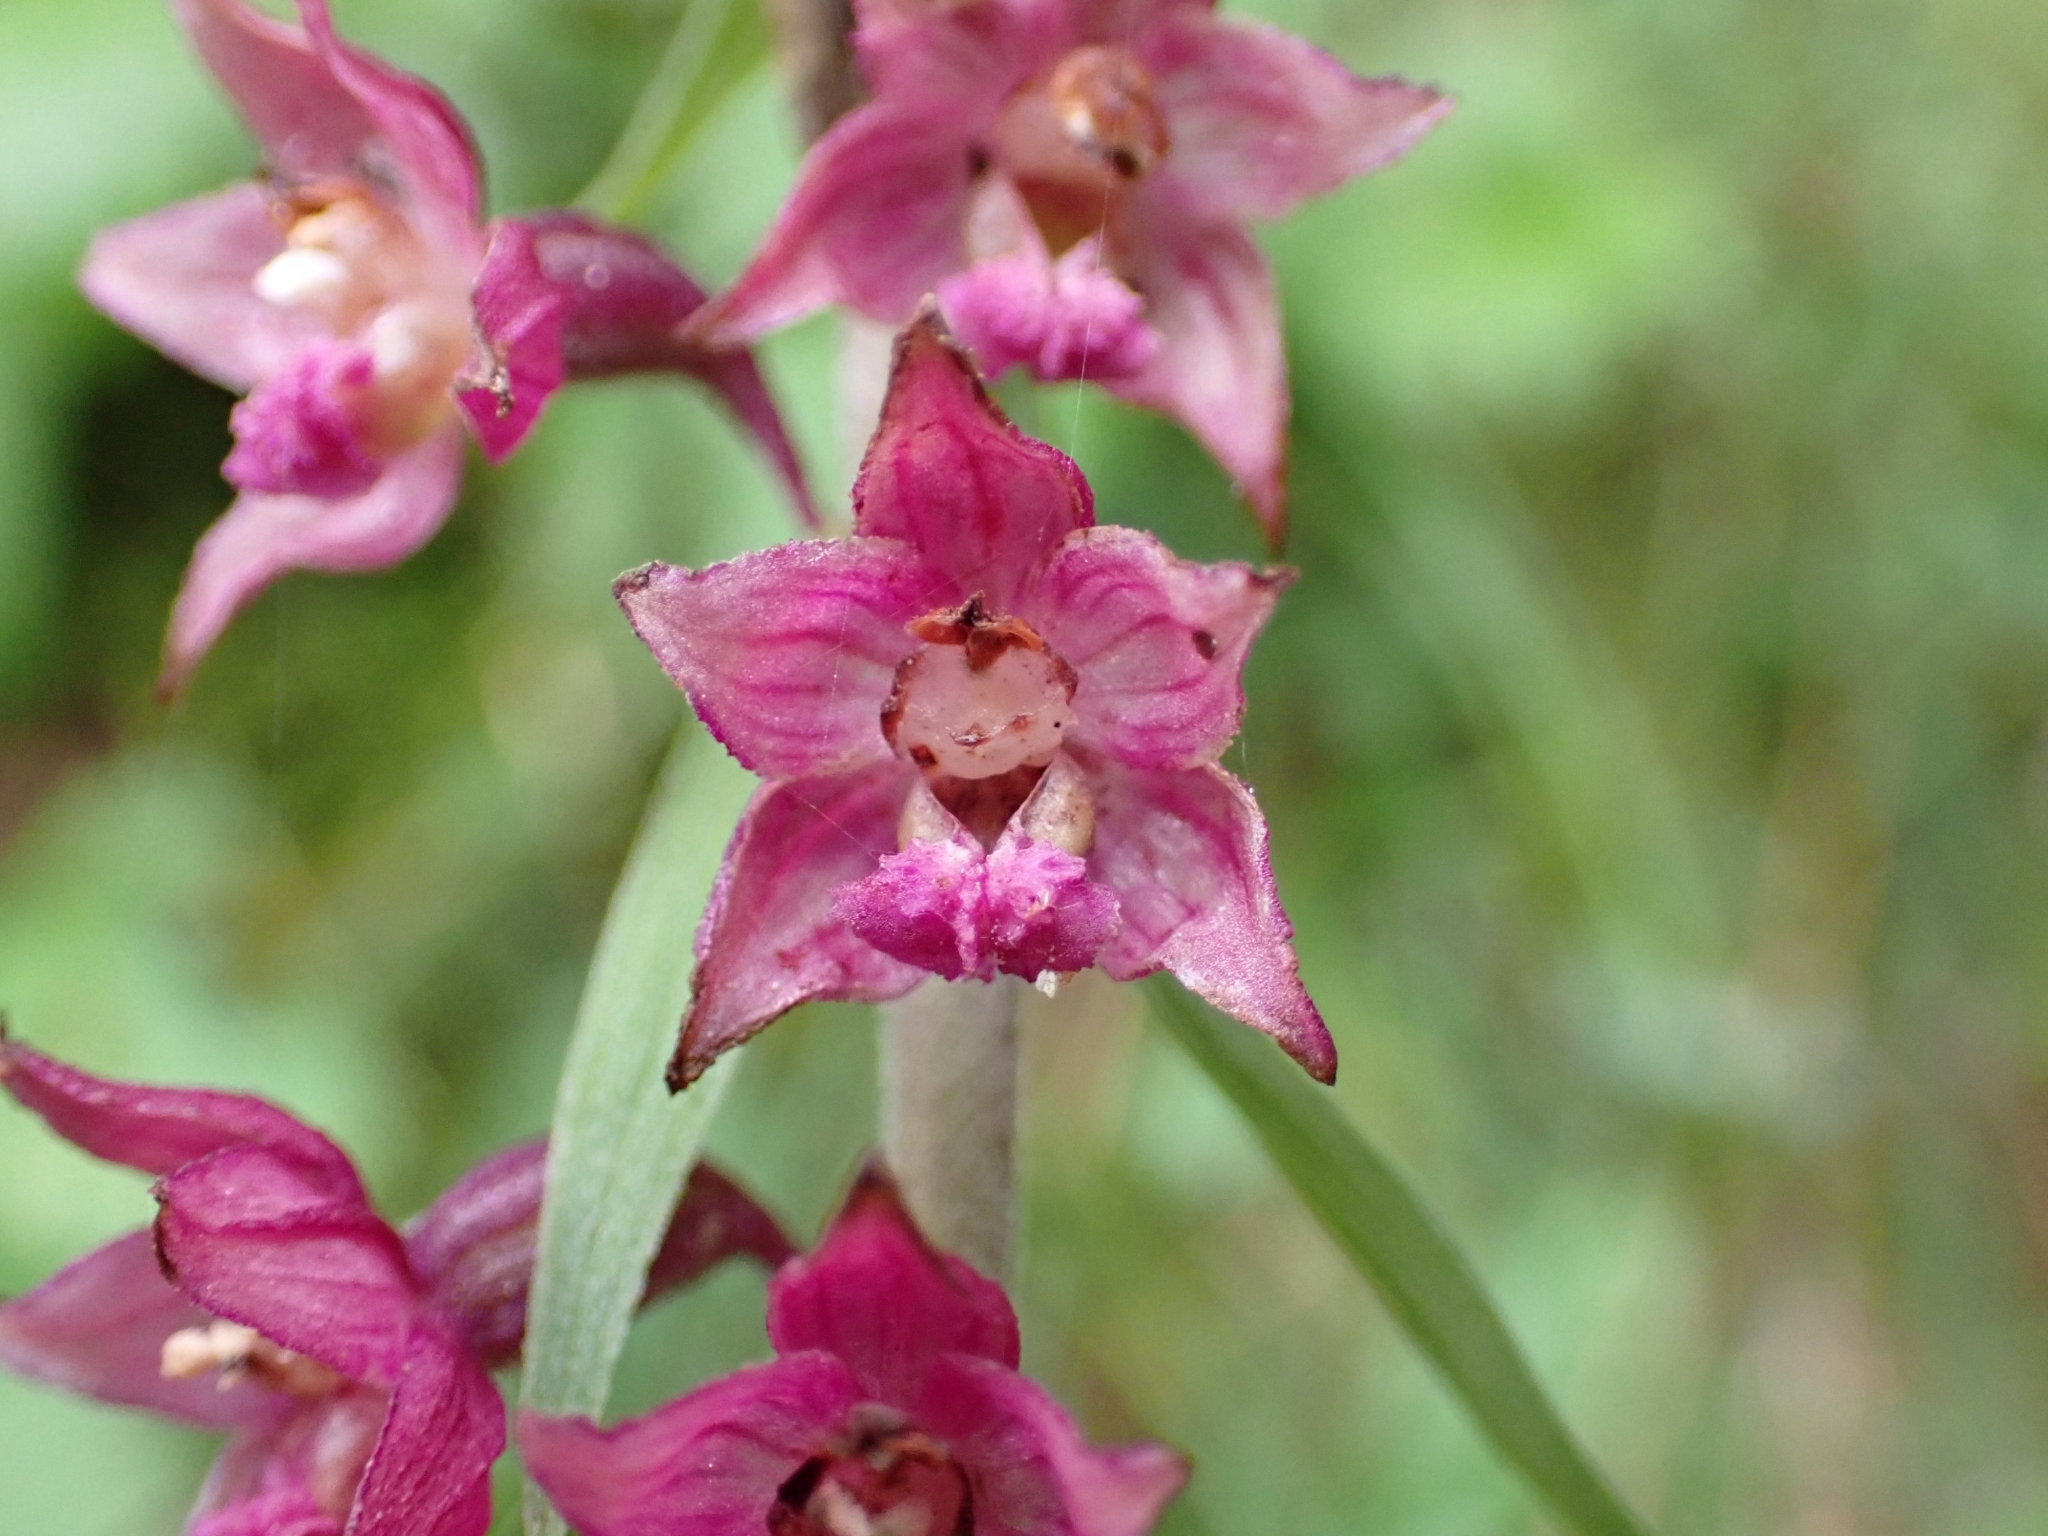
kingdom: Plantae
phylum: Tracheophyta
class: Liliopsida
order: Asparagales
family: Orchidaceae
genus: Epipactis
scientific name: Epipactis atrorubens
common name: Dark-red helleborine
